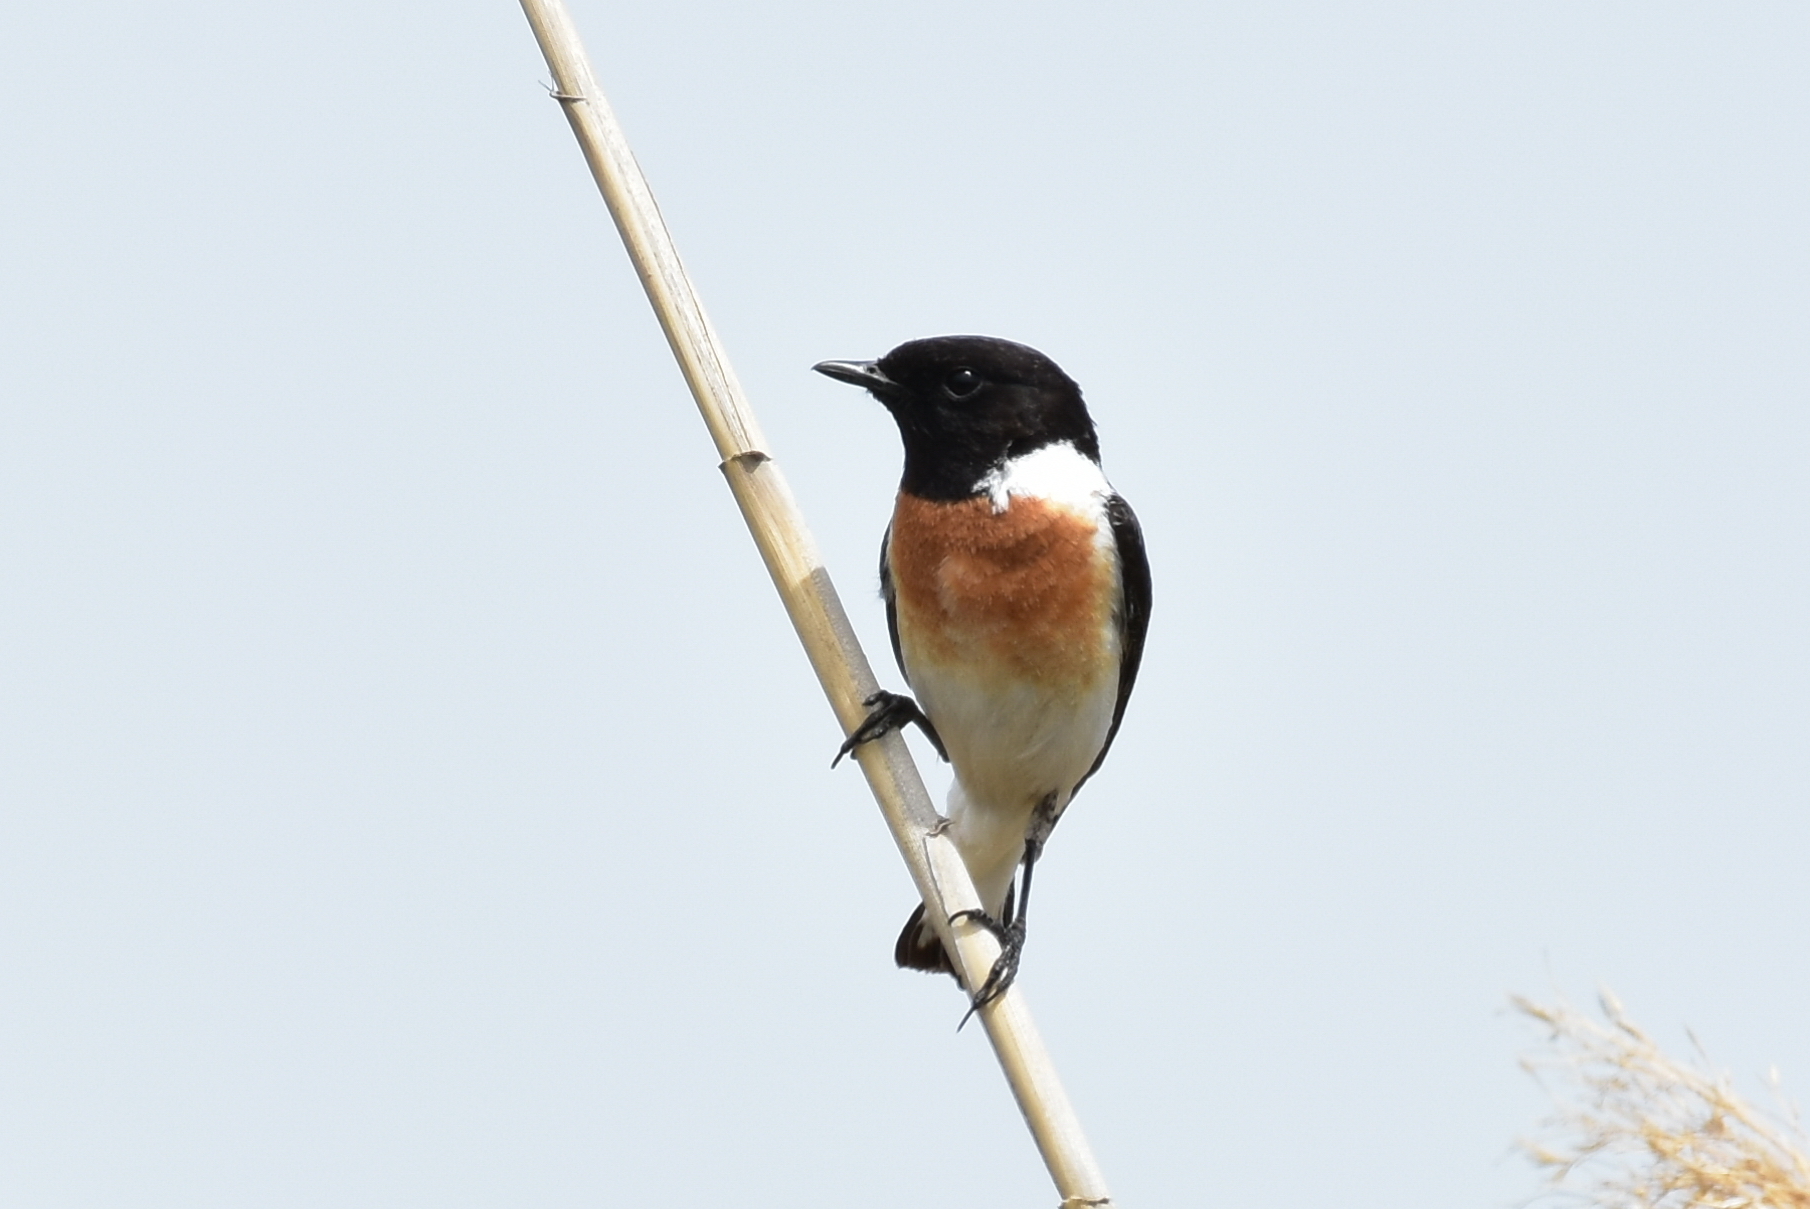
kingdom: Animalia
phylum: Chordata
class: Aves
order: Passeriformes
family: Muscicapidae
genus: Saxicola
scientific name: Saxicola maurus
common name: Siberian stonechat
